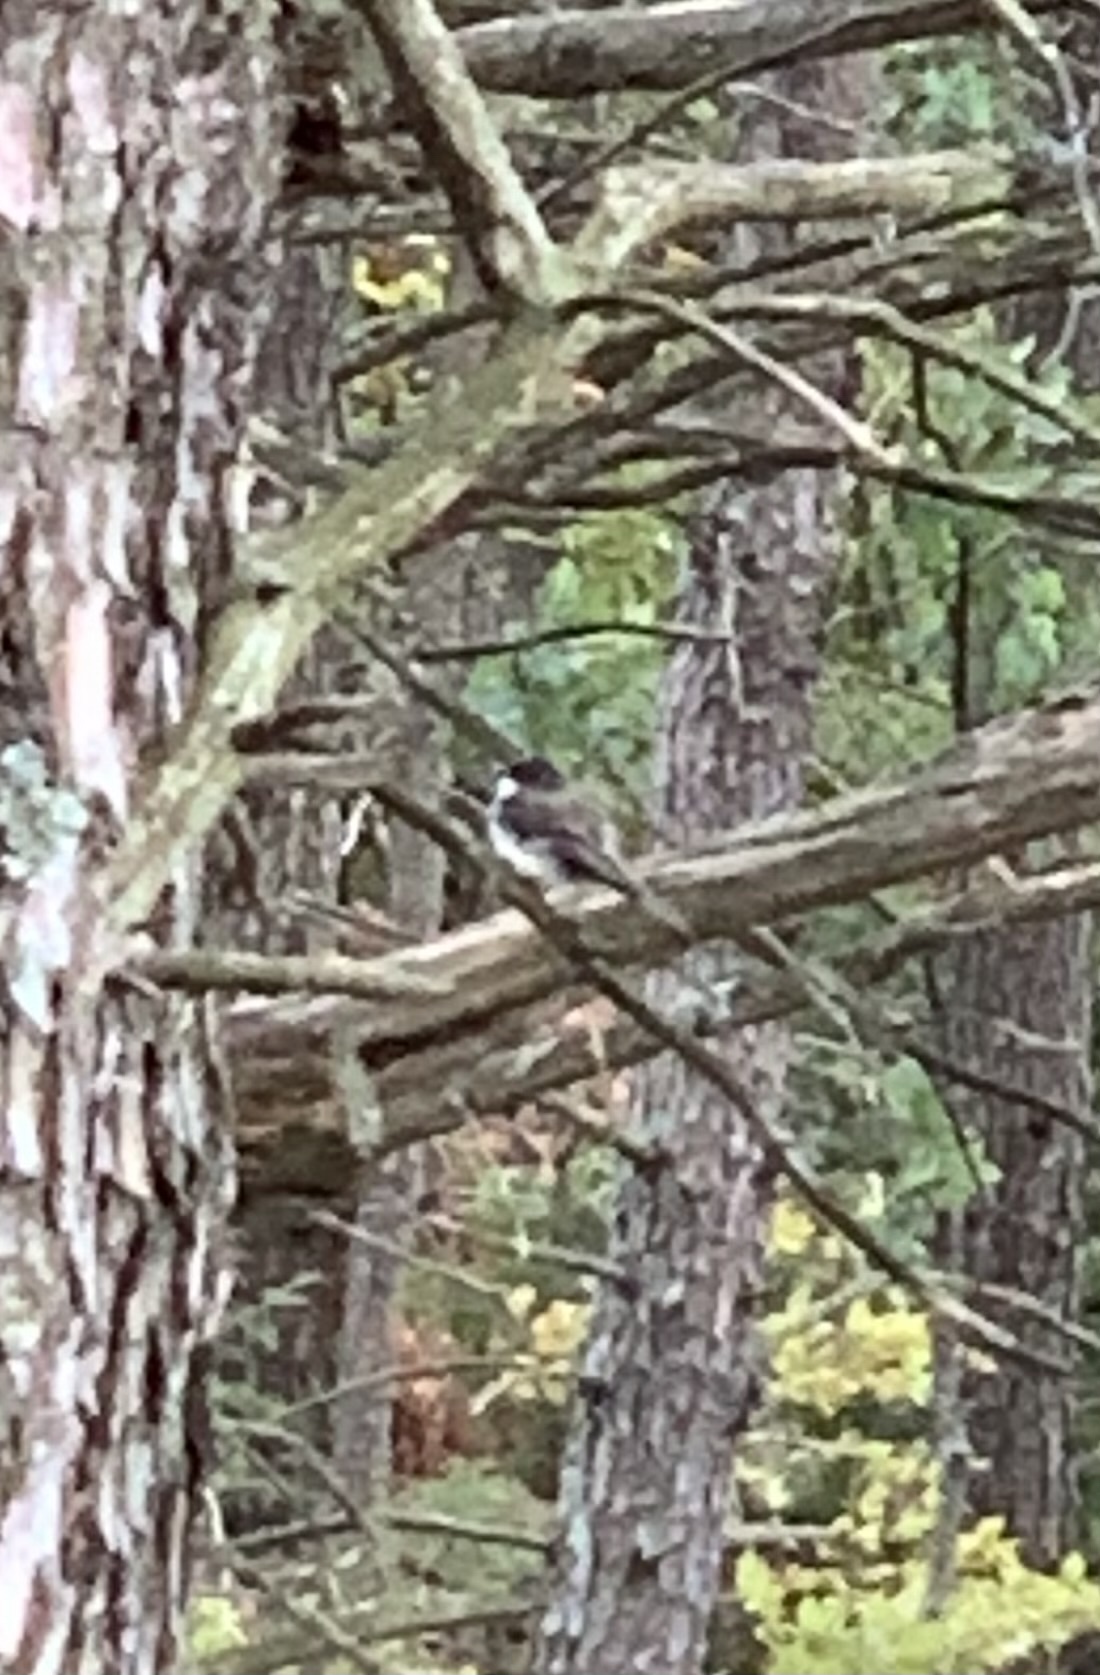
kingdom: Animalia
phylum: Chordata
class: Aves
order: Passeriformes
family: Tyrannidae
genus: Sayornis
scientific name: Sayornis phoebe
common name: Eastern phoebe
